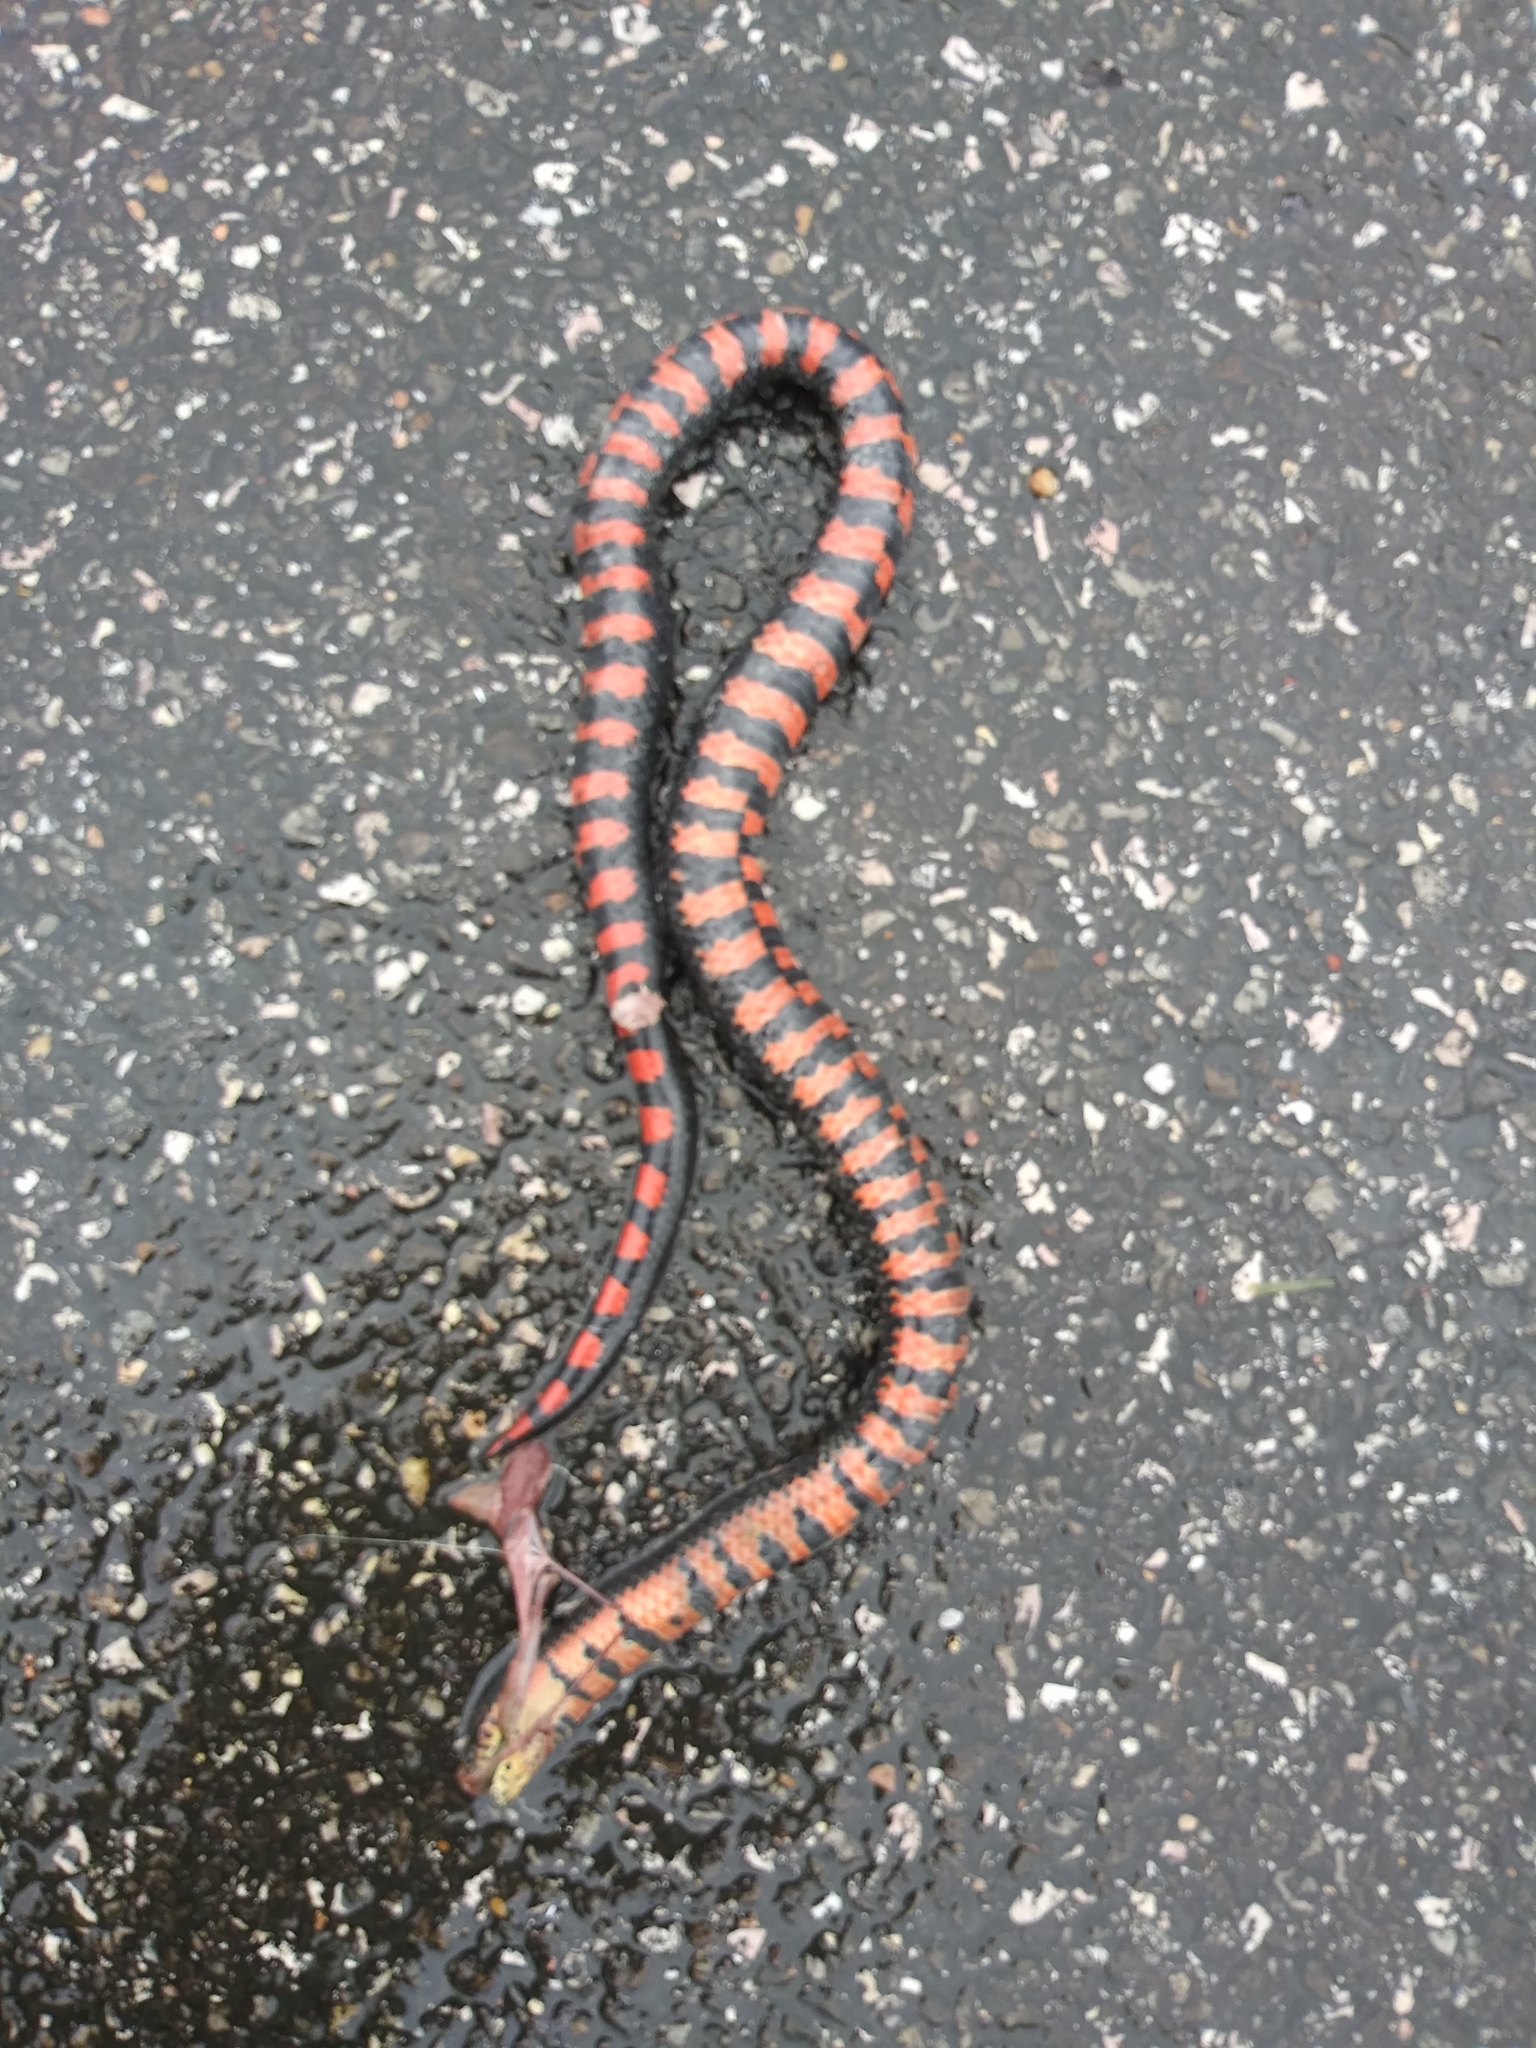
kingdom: Animalia
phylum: Chordata
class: Squamata
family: Colubridae
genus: Farancia
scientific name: Farancia abacura
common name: Mud snake
